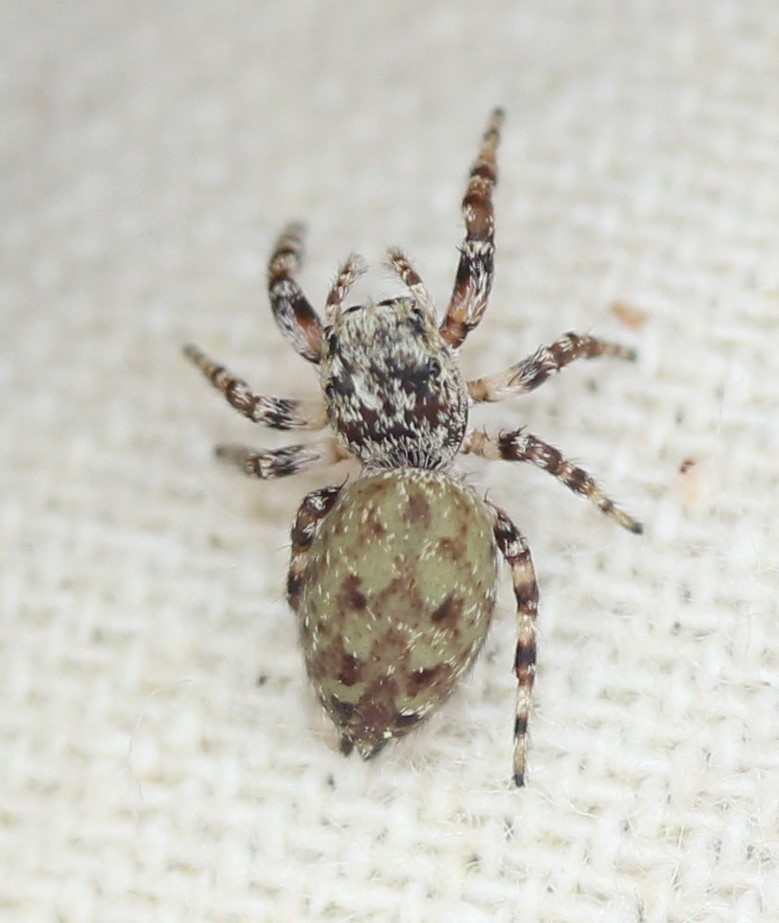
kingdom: Animalia
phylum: Arthropoda
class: Arachnida
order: Araneae
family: Salticidae
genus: Pelegrina
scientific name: Pelegrina galathea
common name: Jumping spiders
